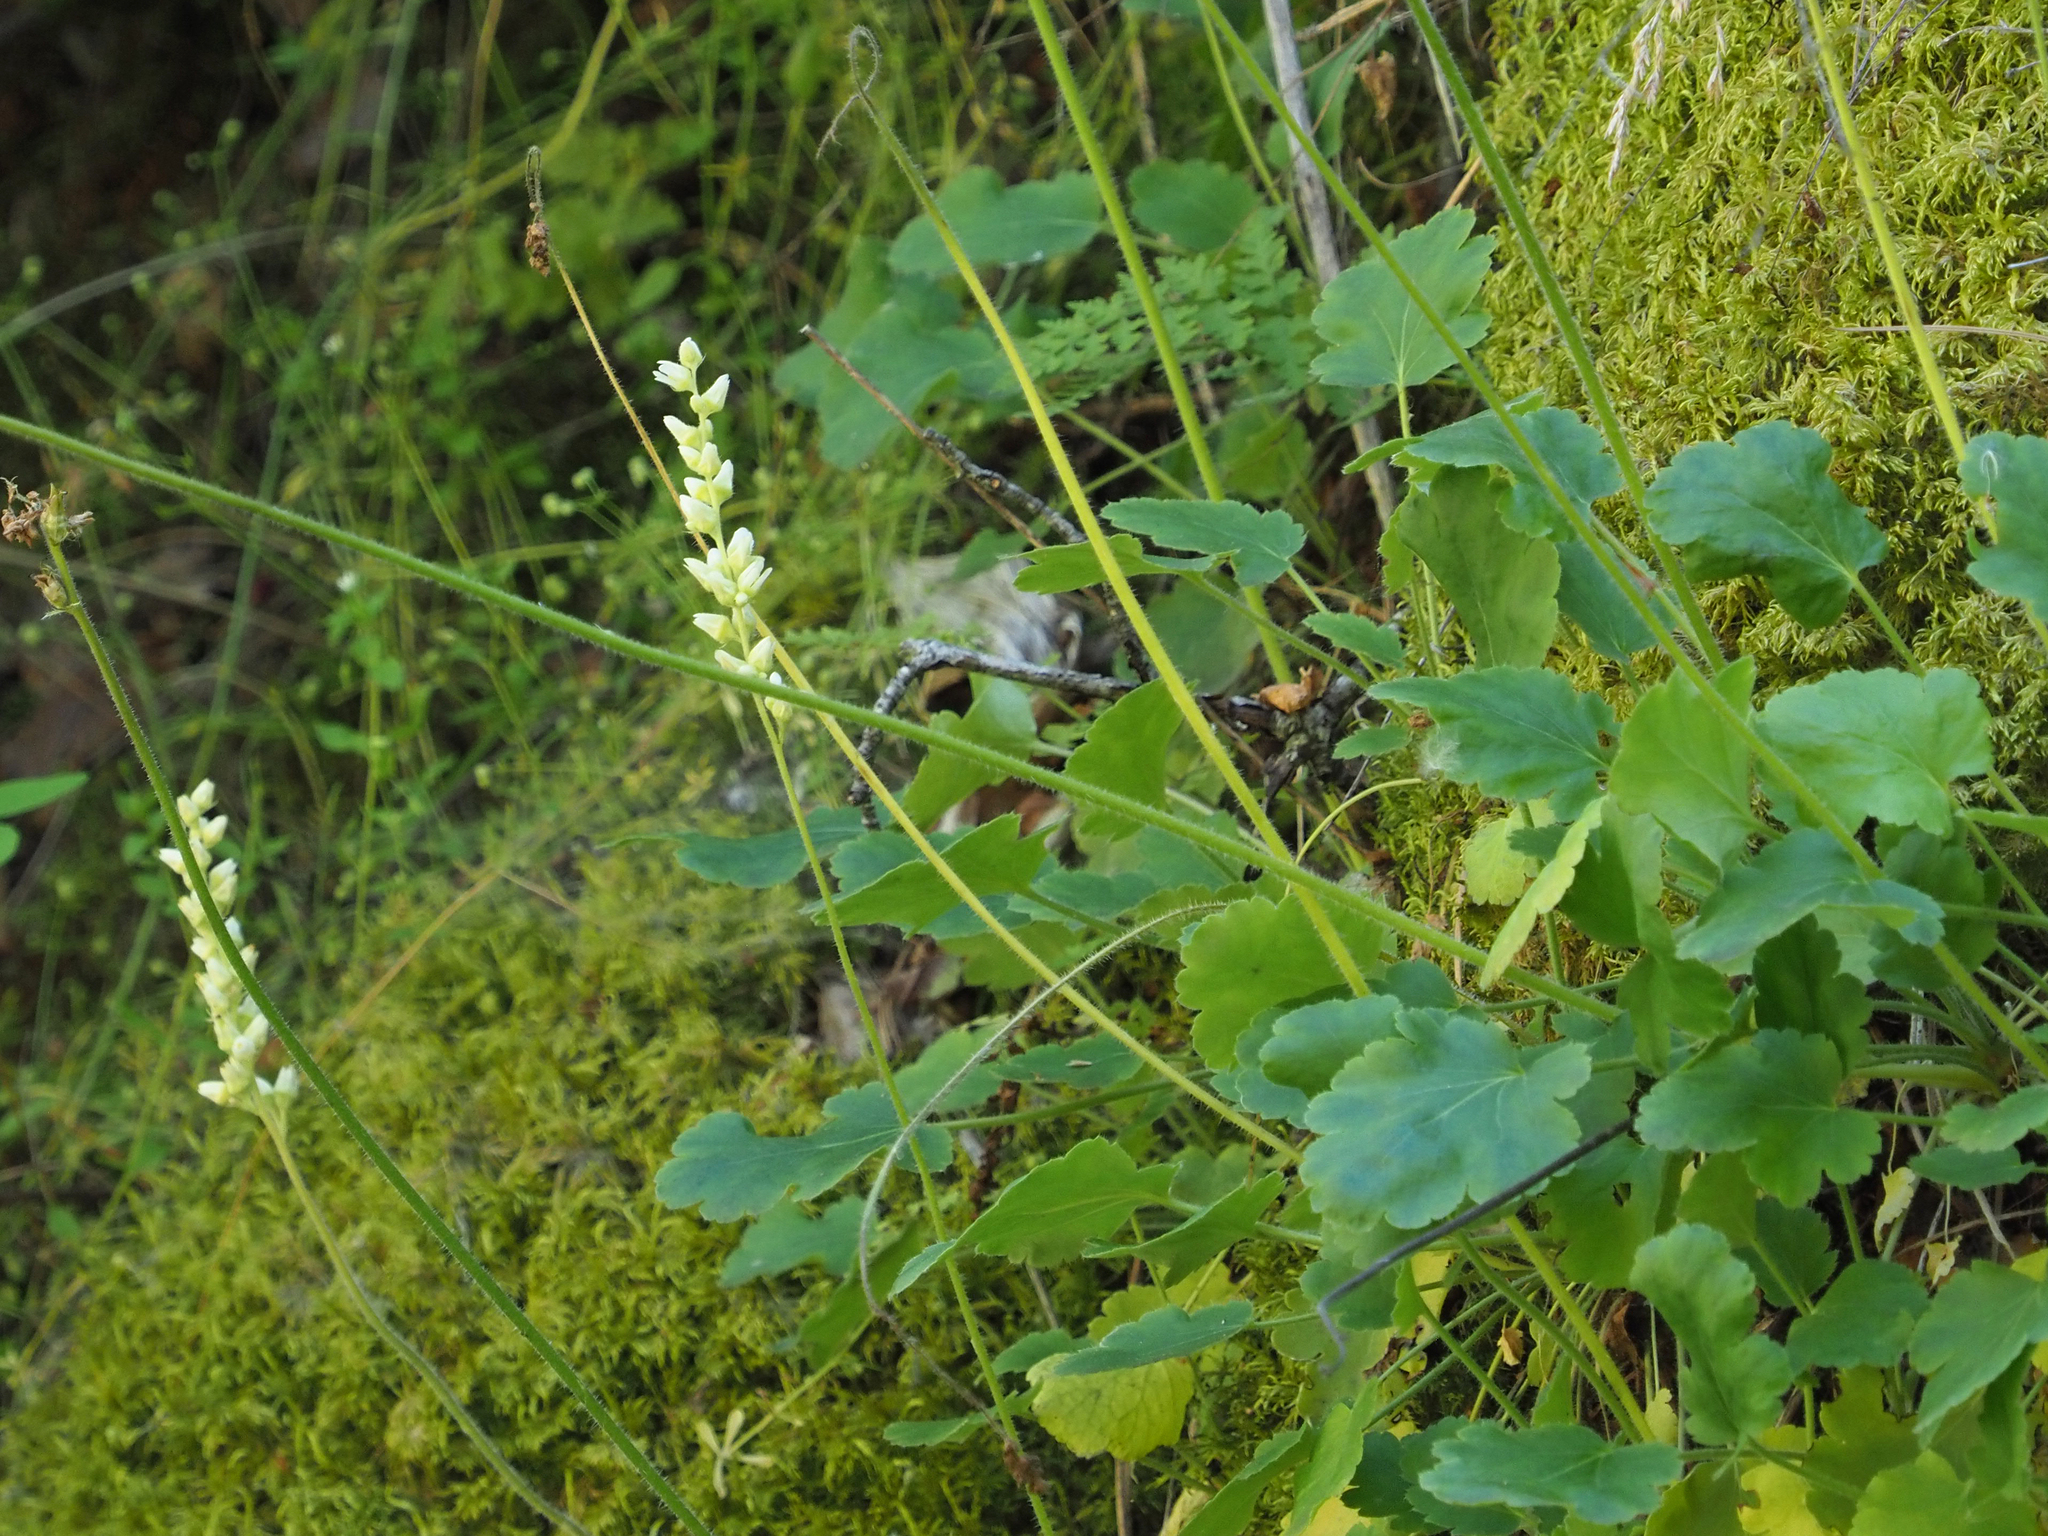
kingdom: Plantae
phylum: Tracheophyta
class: Magnoliopsida
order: Saxifragales
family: Saxifragaceae
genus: Heuchera
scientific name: Heuchera cylindrica
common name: Mat alumroot
